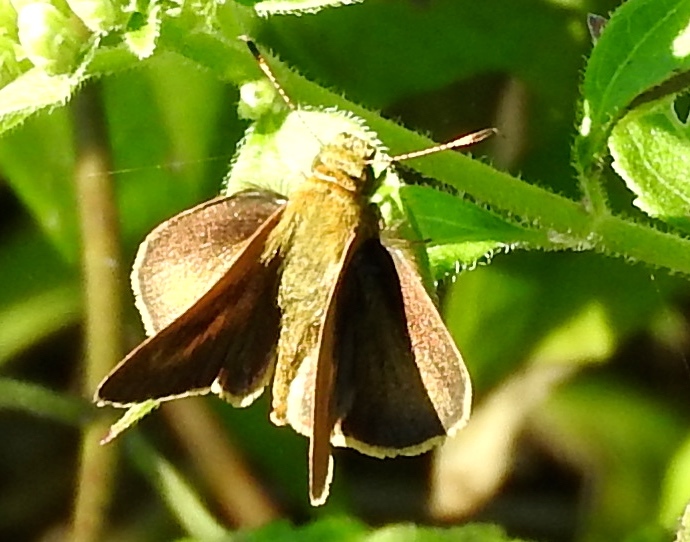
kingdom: Animalia
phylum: Arthropoda
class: Insecta
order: Lepidoptera
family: Hesperiidae
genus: Synapte
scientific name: Synapte malitiosa
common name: Caribbean faceted-skipper
